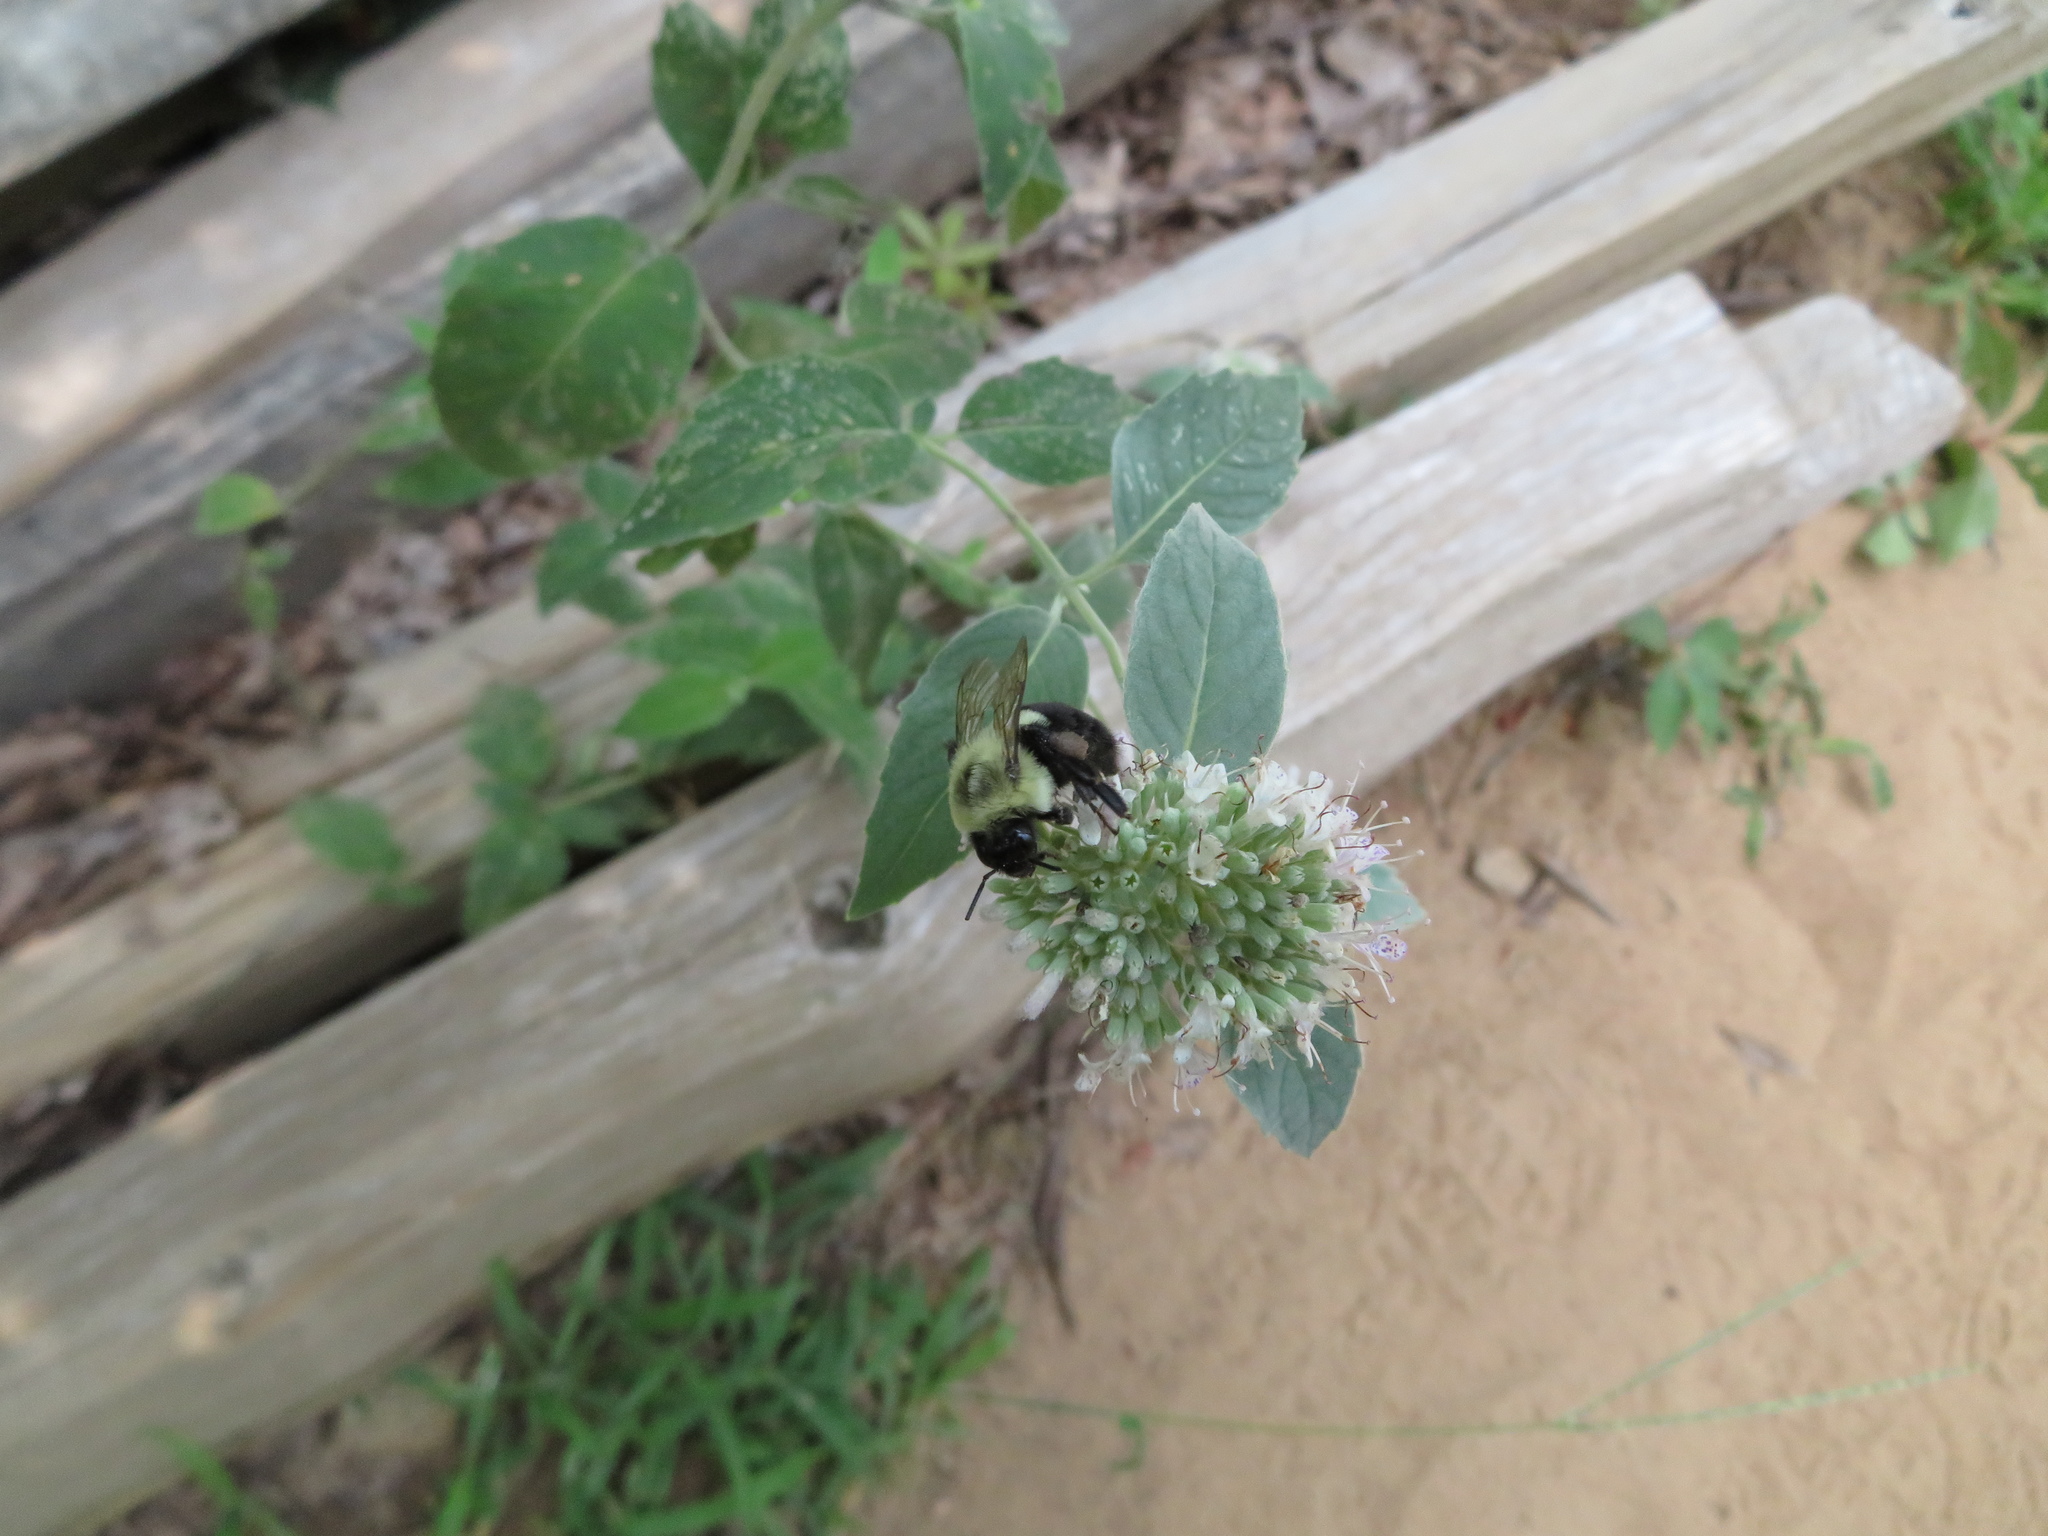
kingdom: Animalia
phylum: Arthropoda
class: Insecta
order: Hymenoptera
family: Apidae
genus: Bombus
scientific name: Bombus impatiens
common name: Common eastern bumble bee
